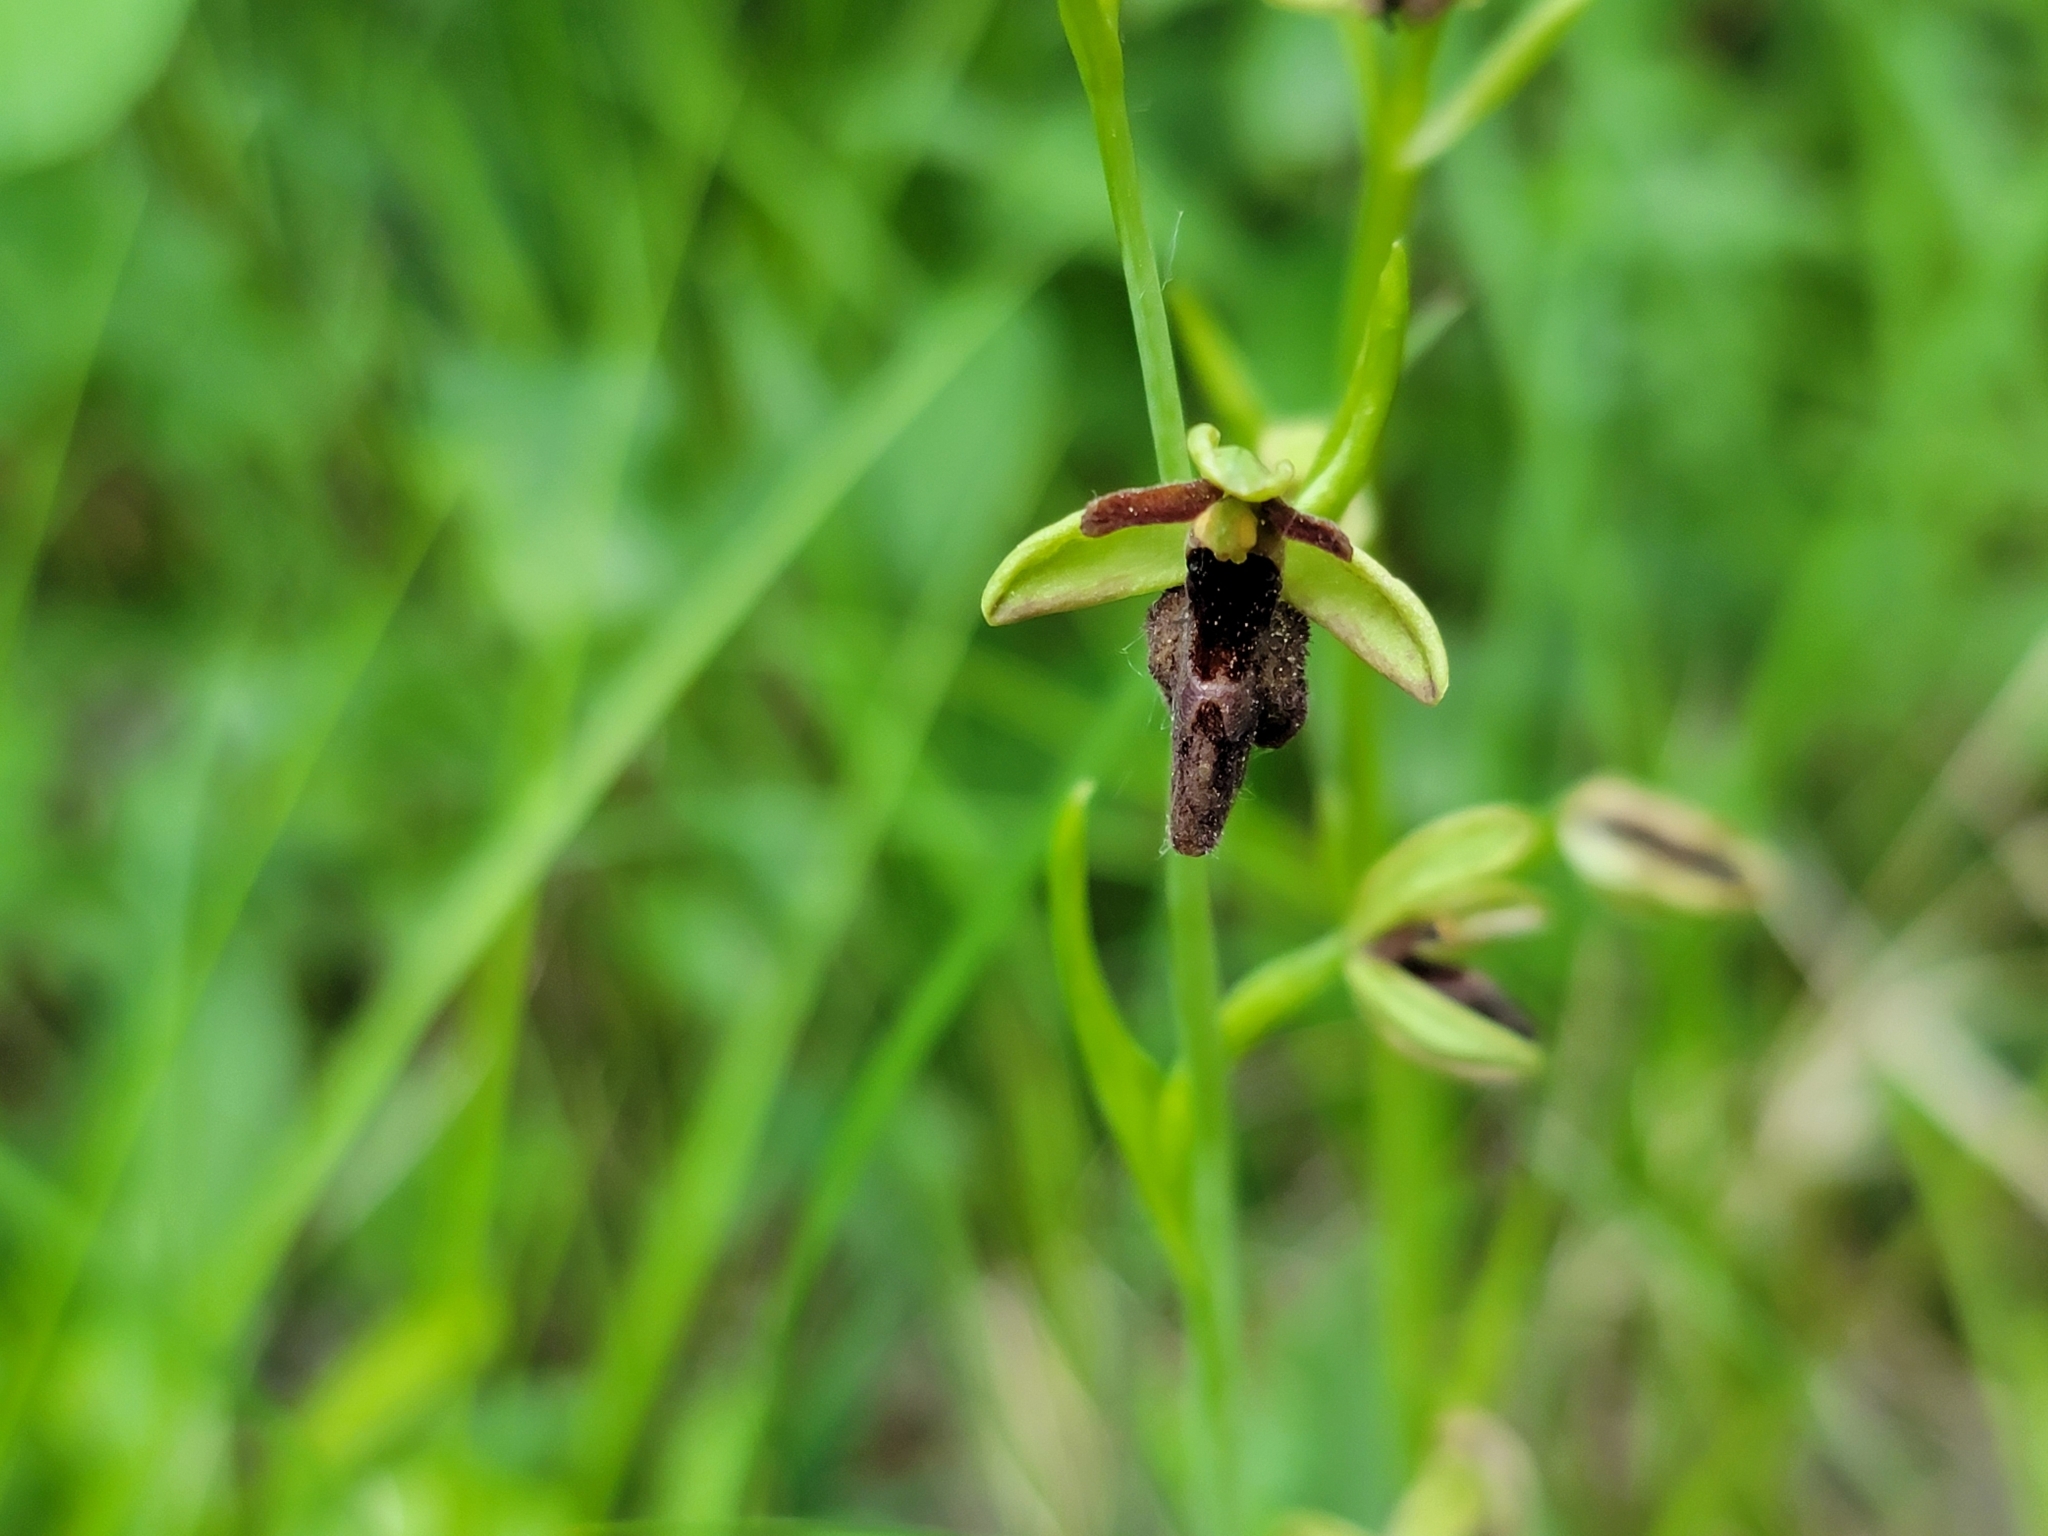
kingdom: Plantae
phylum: Tracheophyta
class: Liliopsida
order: Asparagales
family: Orchidaceae
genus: Ophrys
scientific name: Ophrys hybrida
